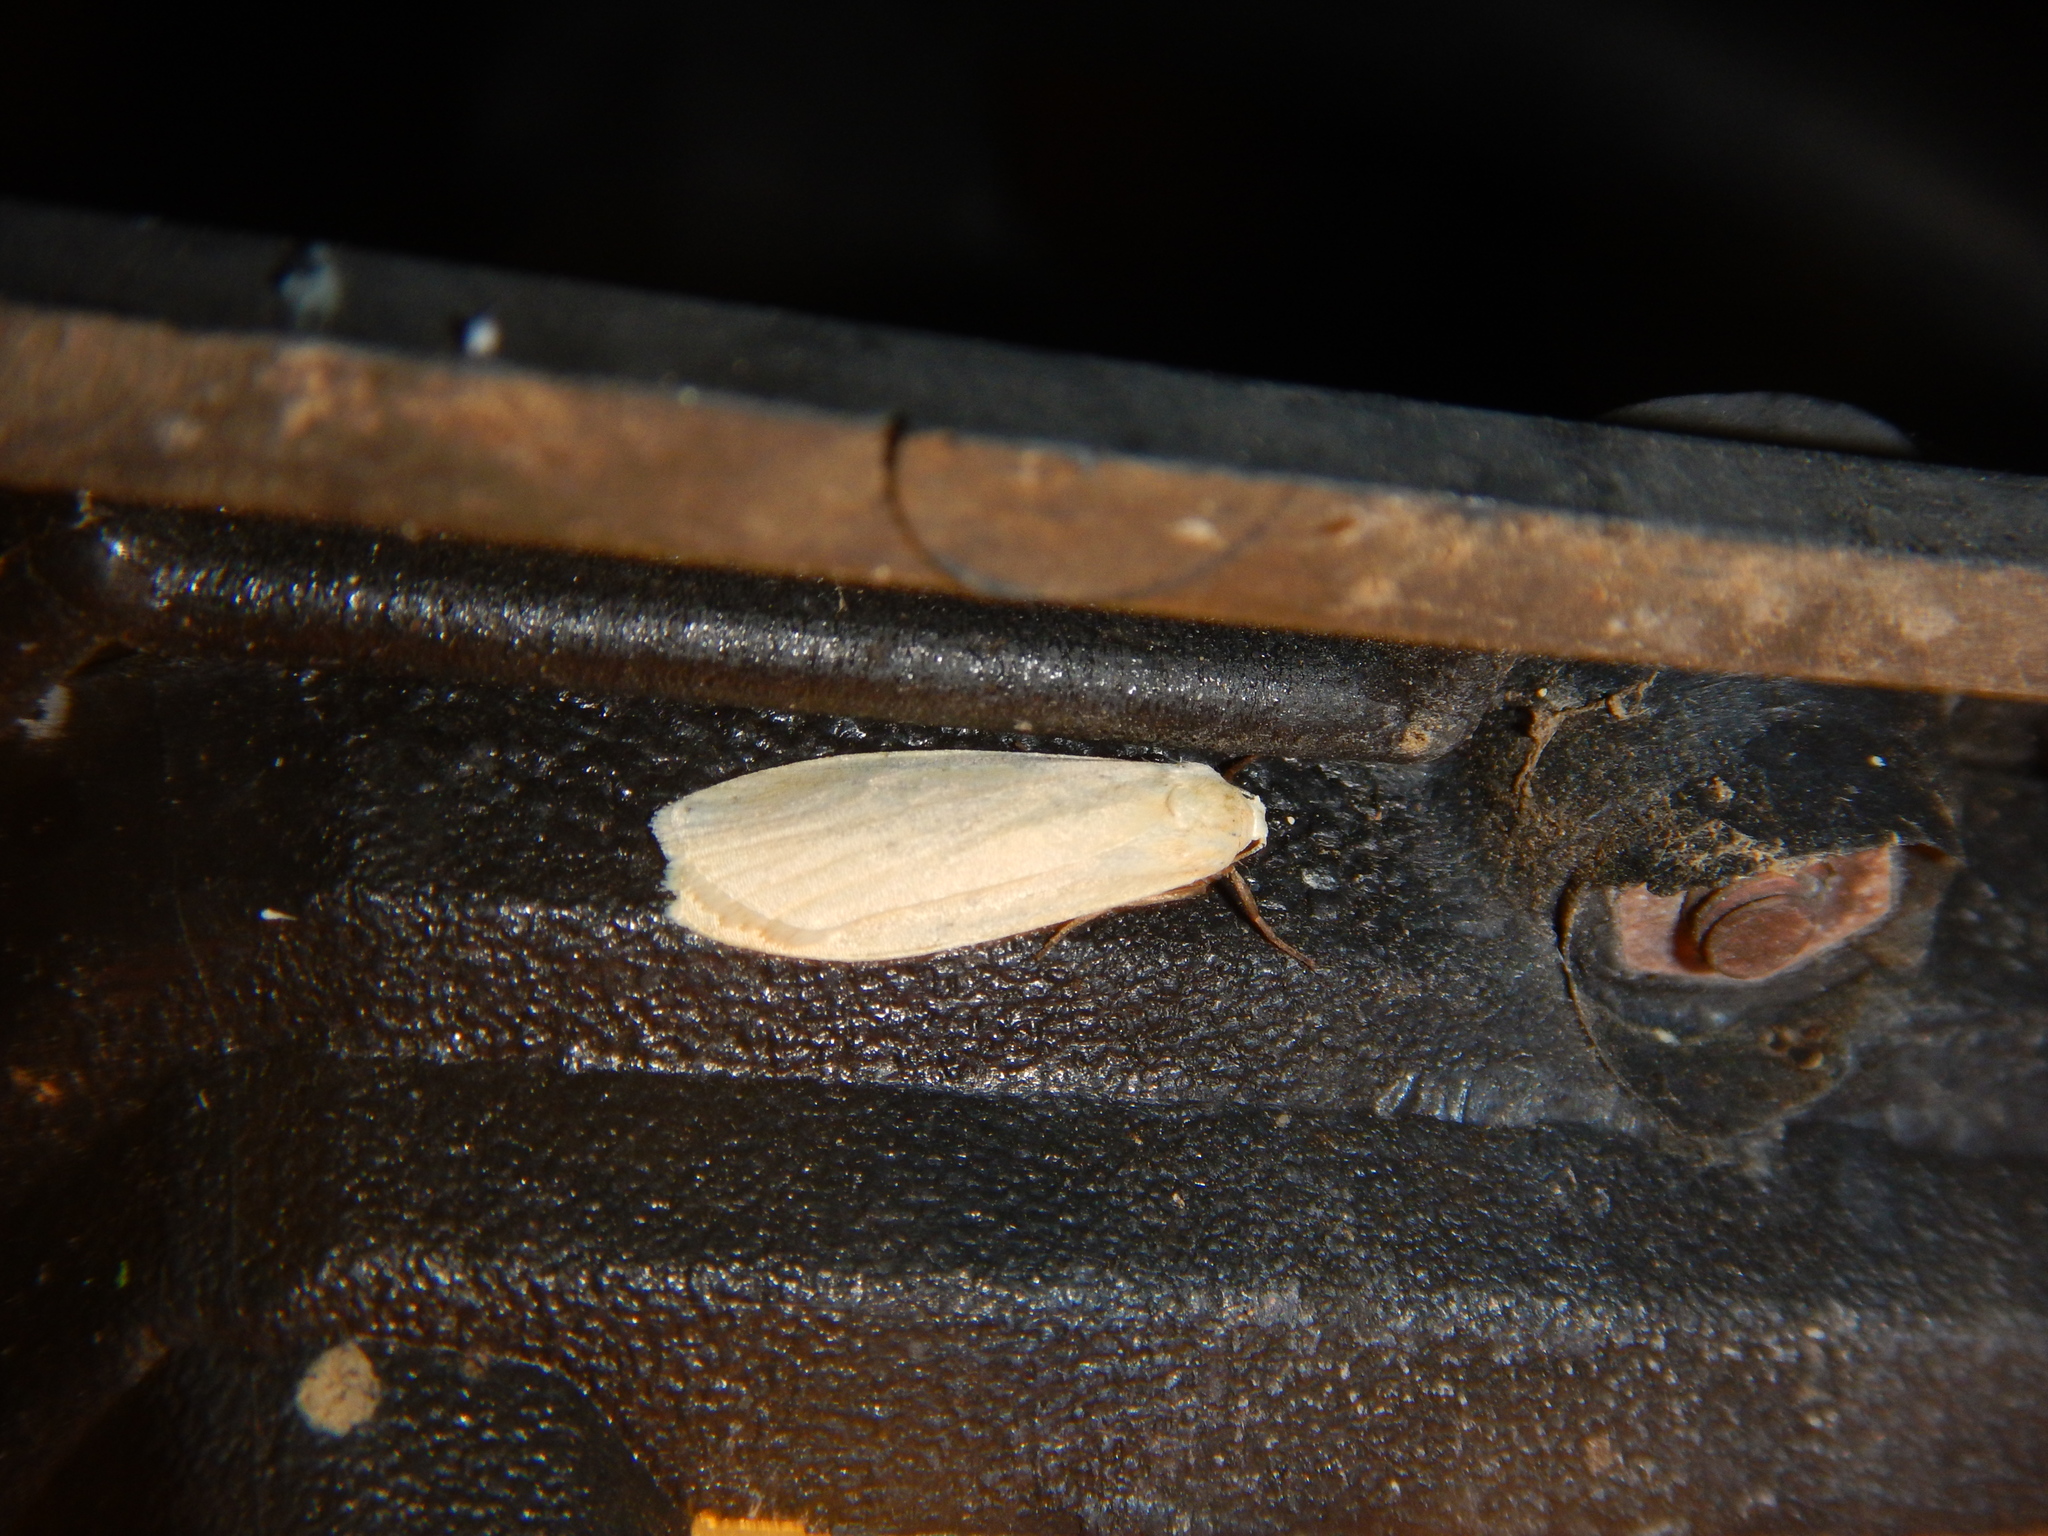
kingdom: Animalia
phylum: Arthropoda
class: Insecta
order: Lepidoptera
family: Erebidae
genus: Collita
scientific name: Collita griseola
